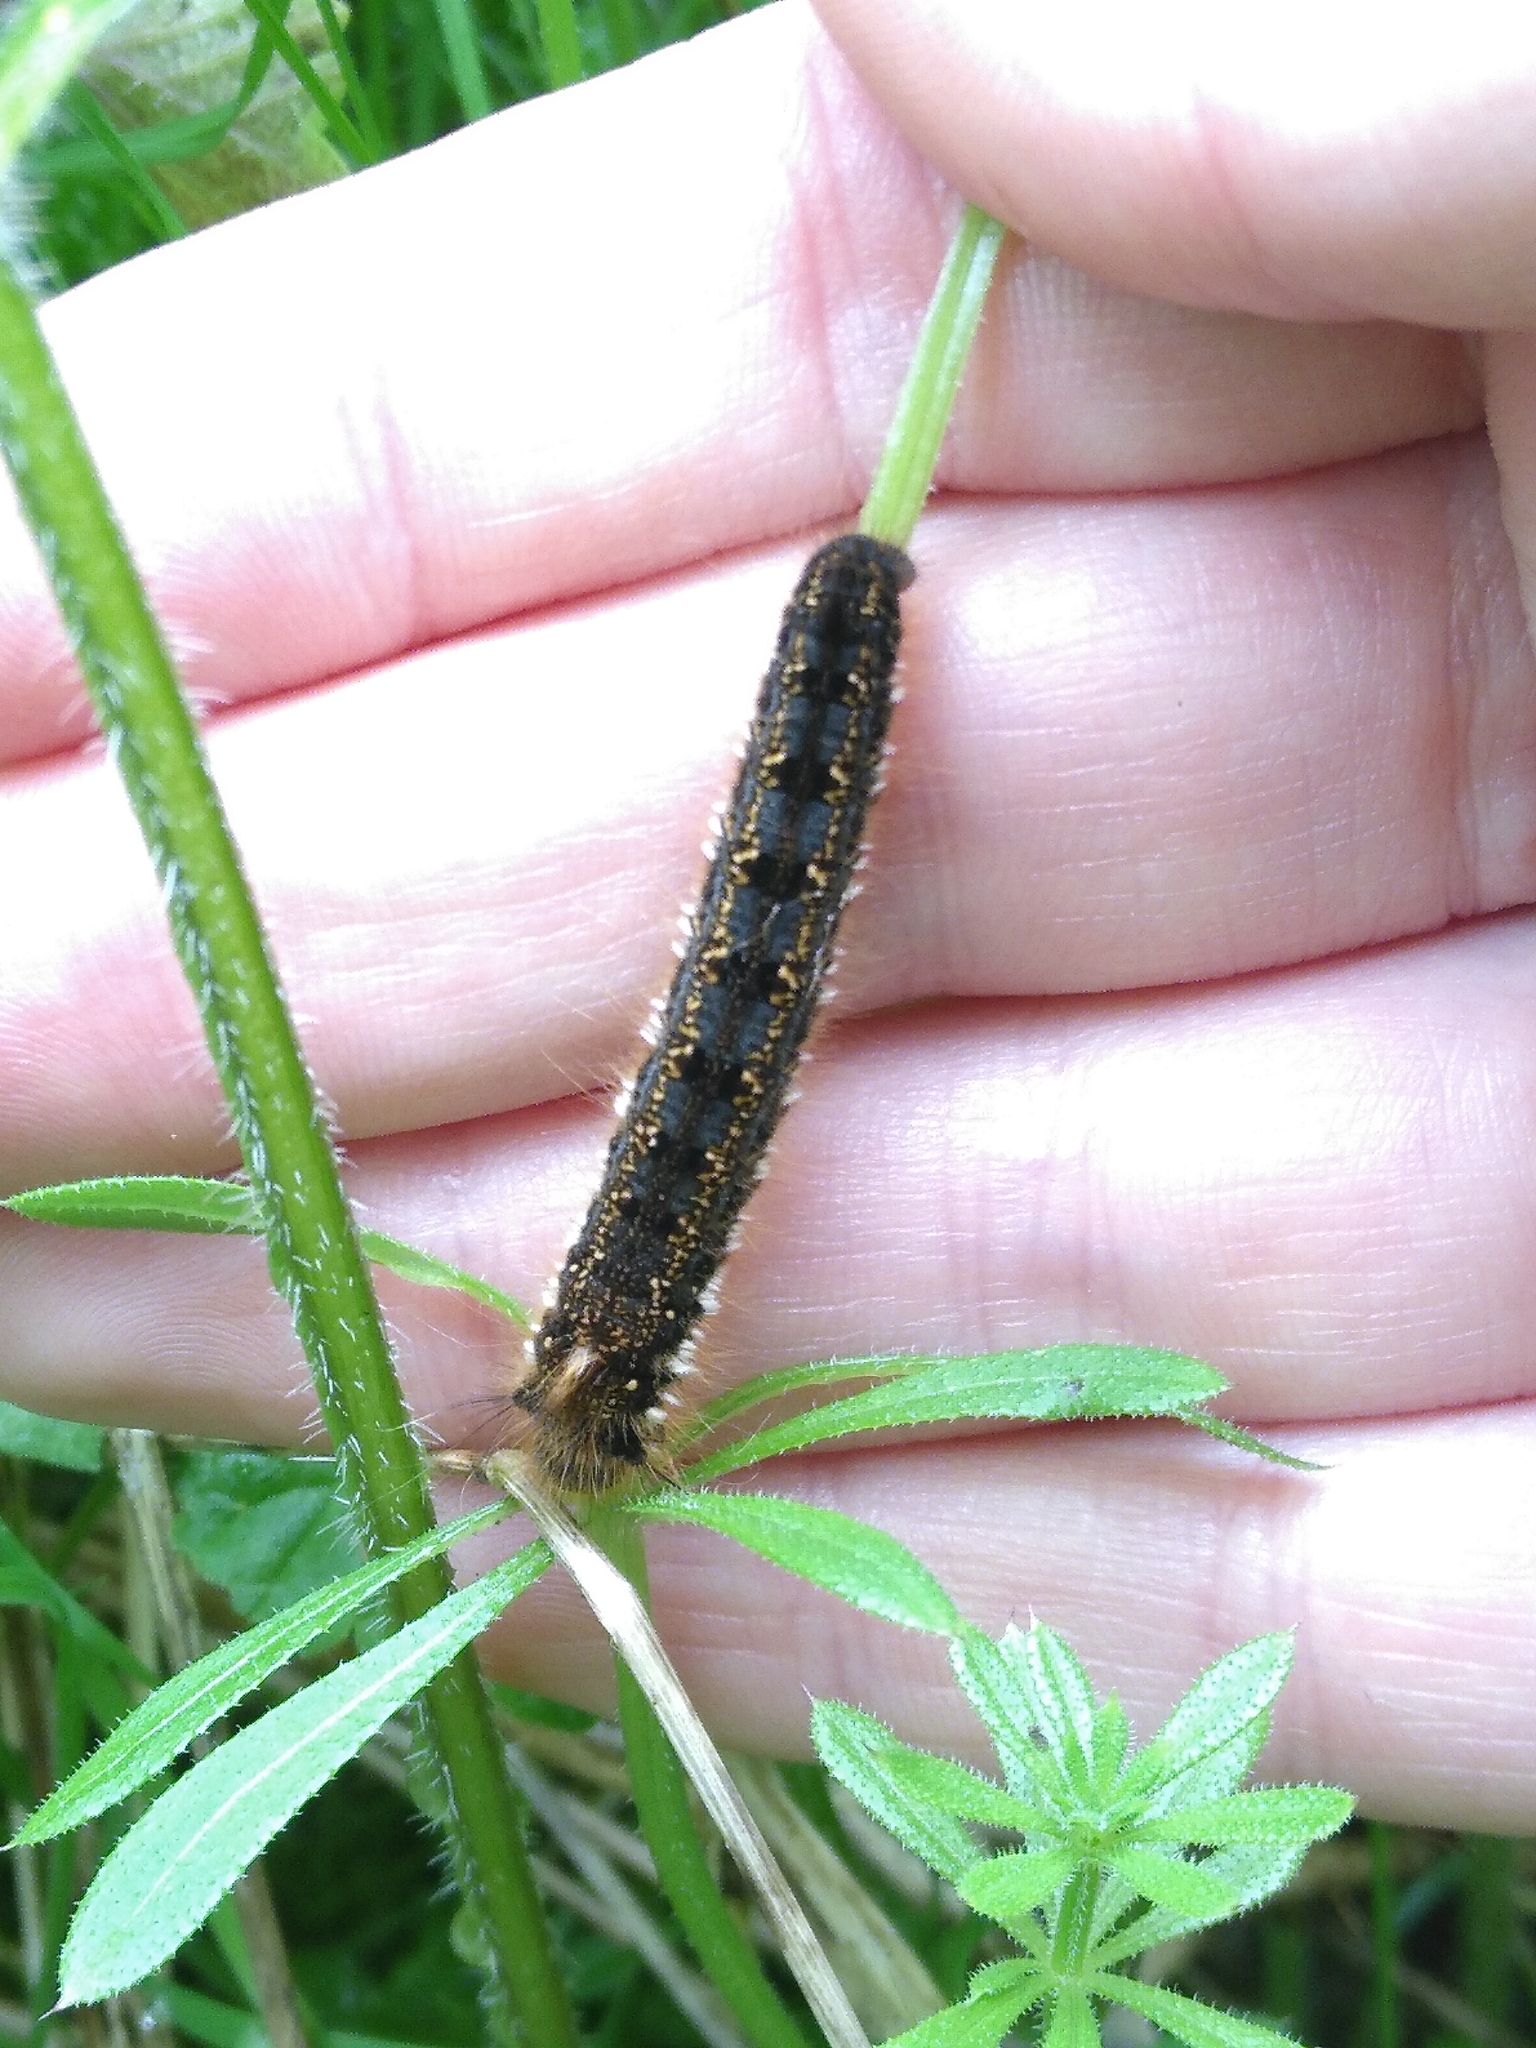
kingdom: Animalia
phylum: Arthropoda
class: Insecta
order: Lepidoptera
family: Lasiocampidae
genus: Euthrix
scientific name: Euthrix potatoria
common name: Drinker
